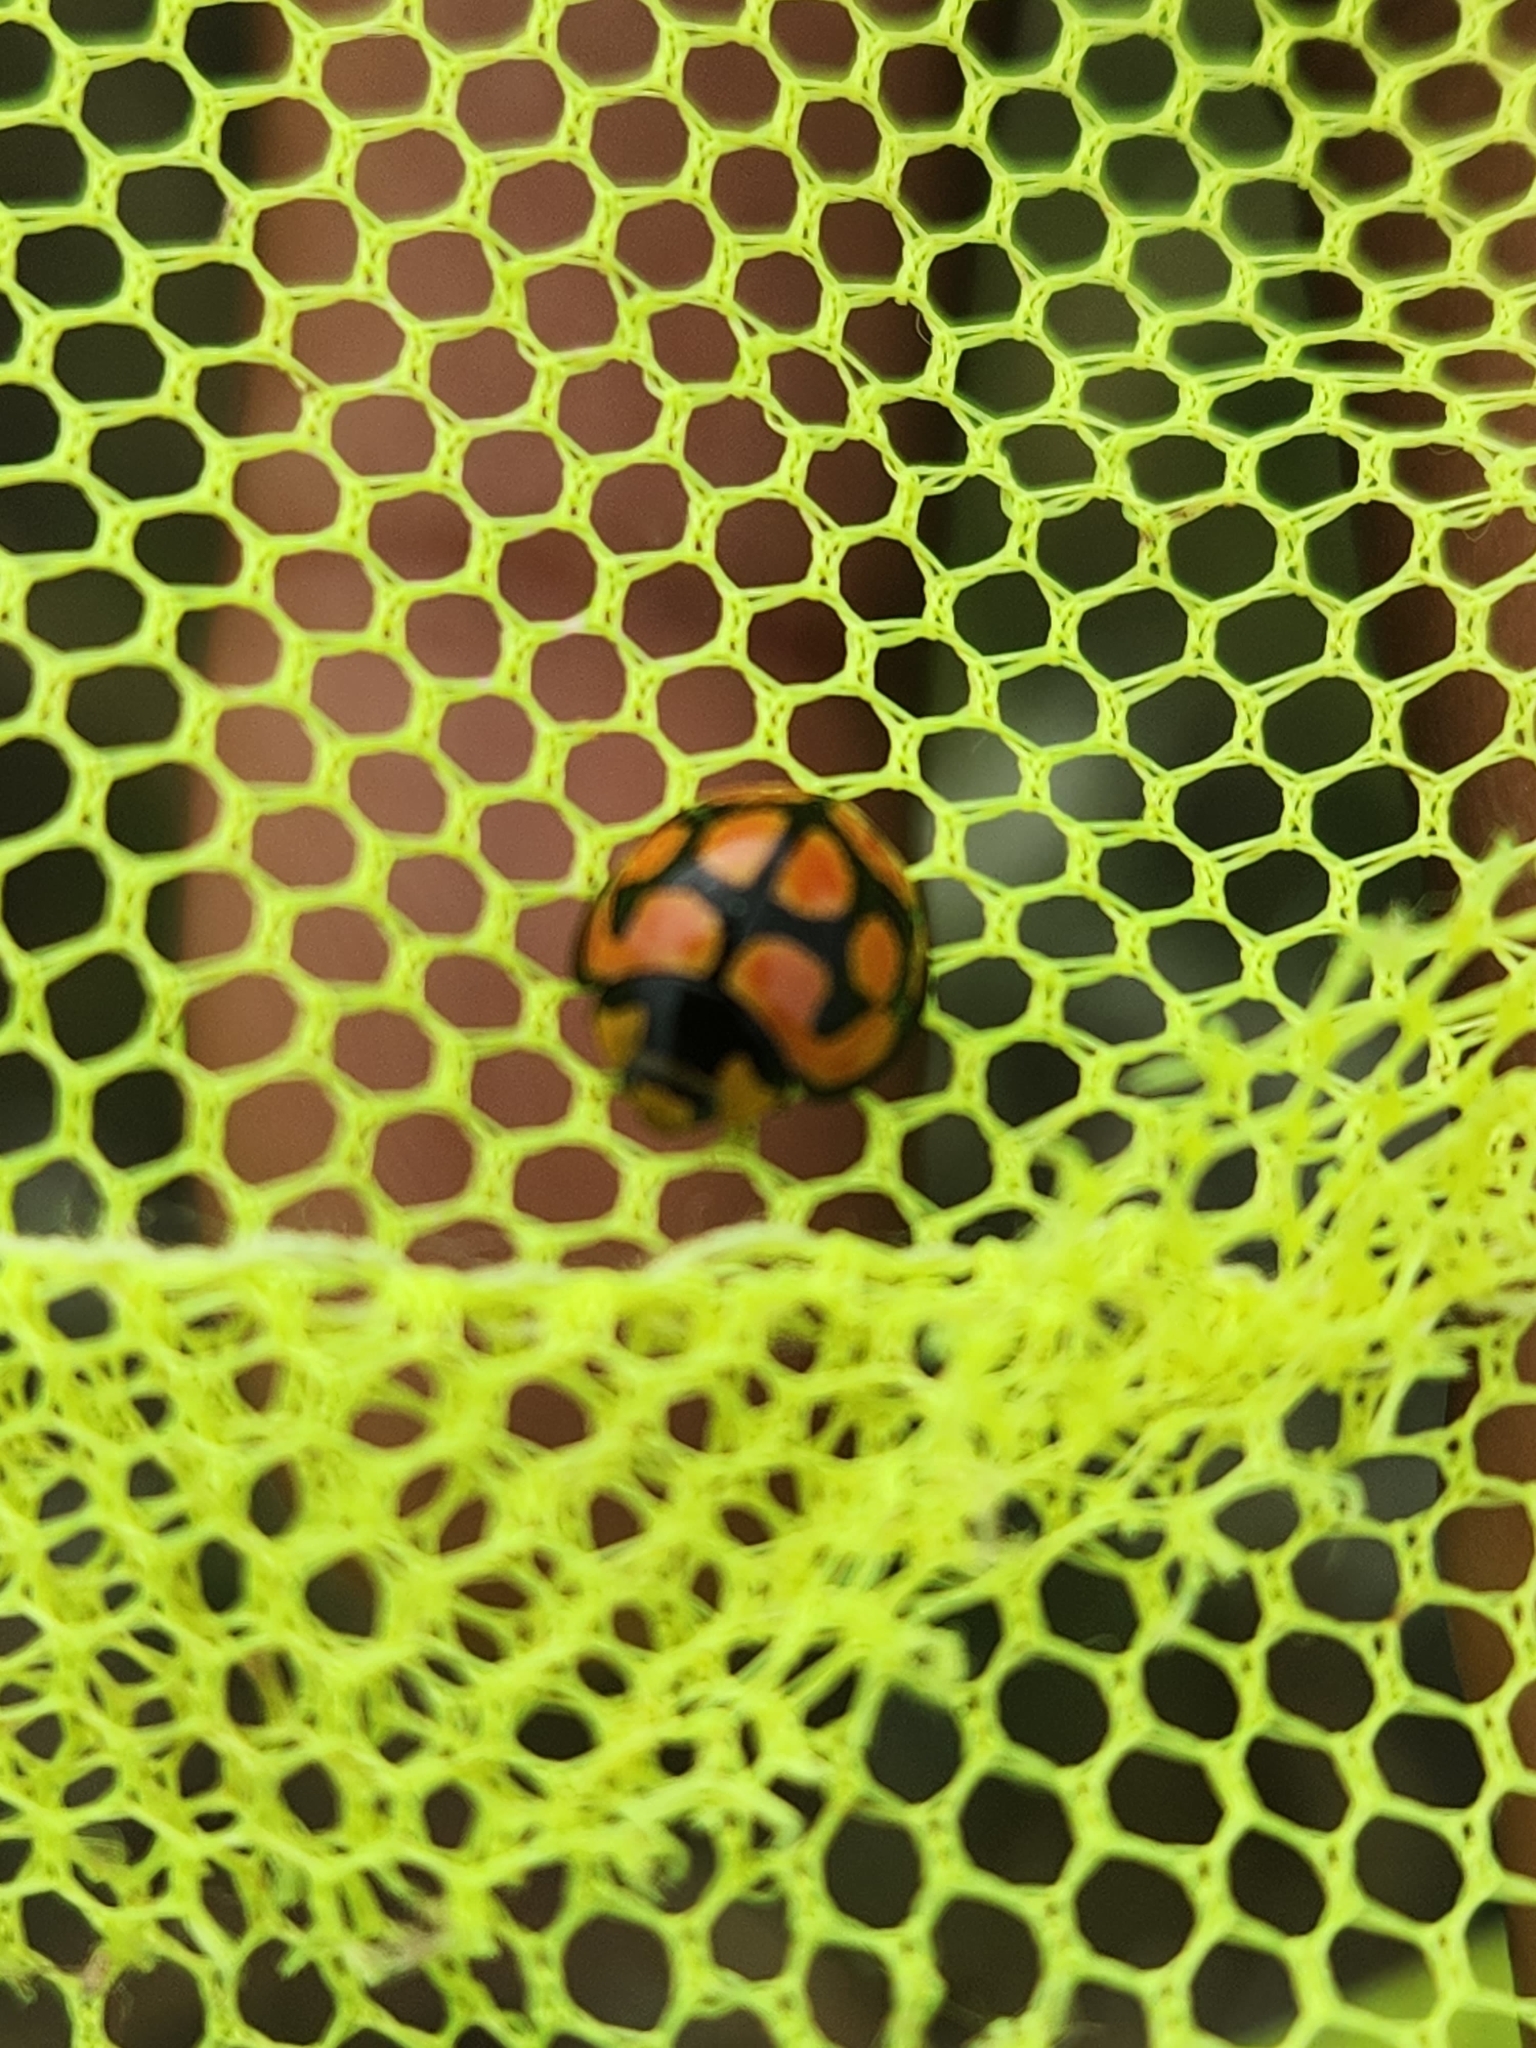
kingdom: Animalia
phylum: Arthropoda
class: Insecta
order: Coleoptera
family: Coccinellidae
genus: Cheilomenes
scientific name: Cheilomenes lunata
